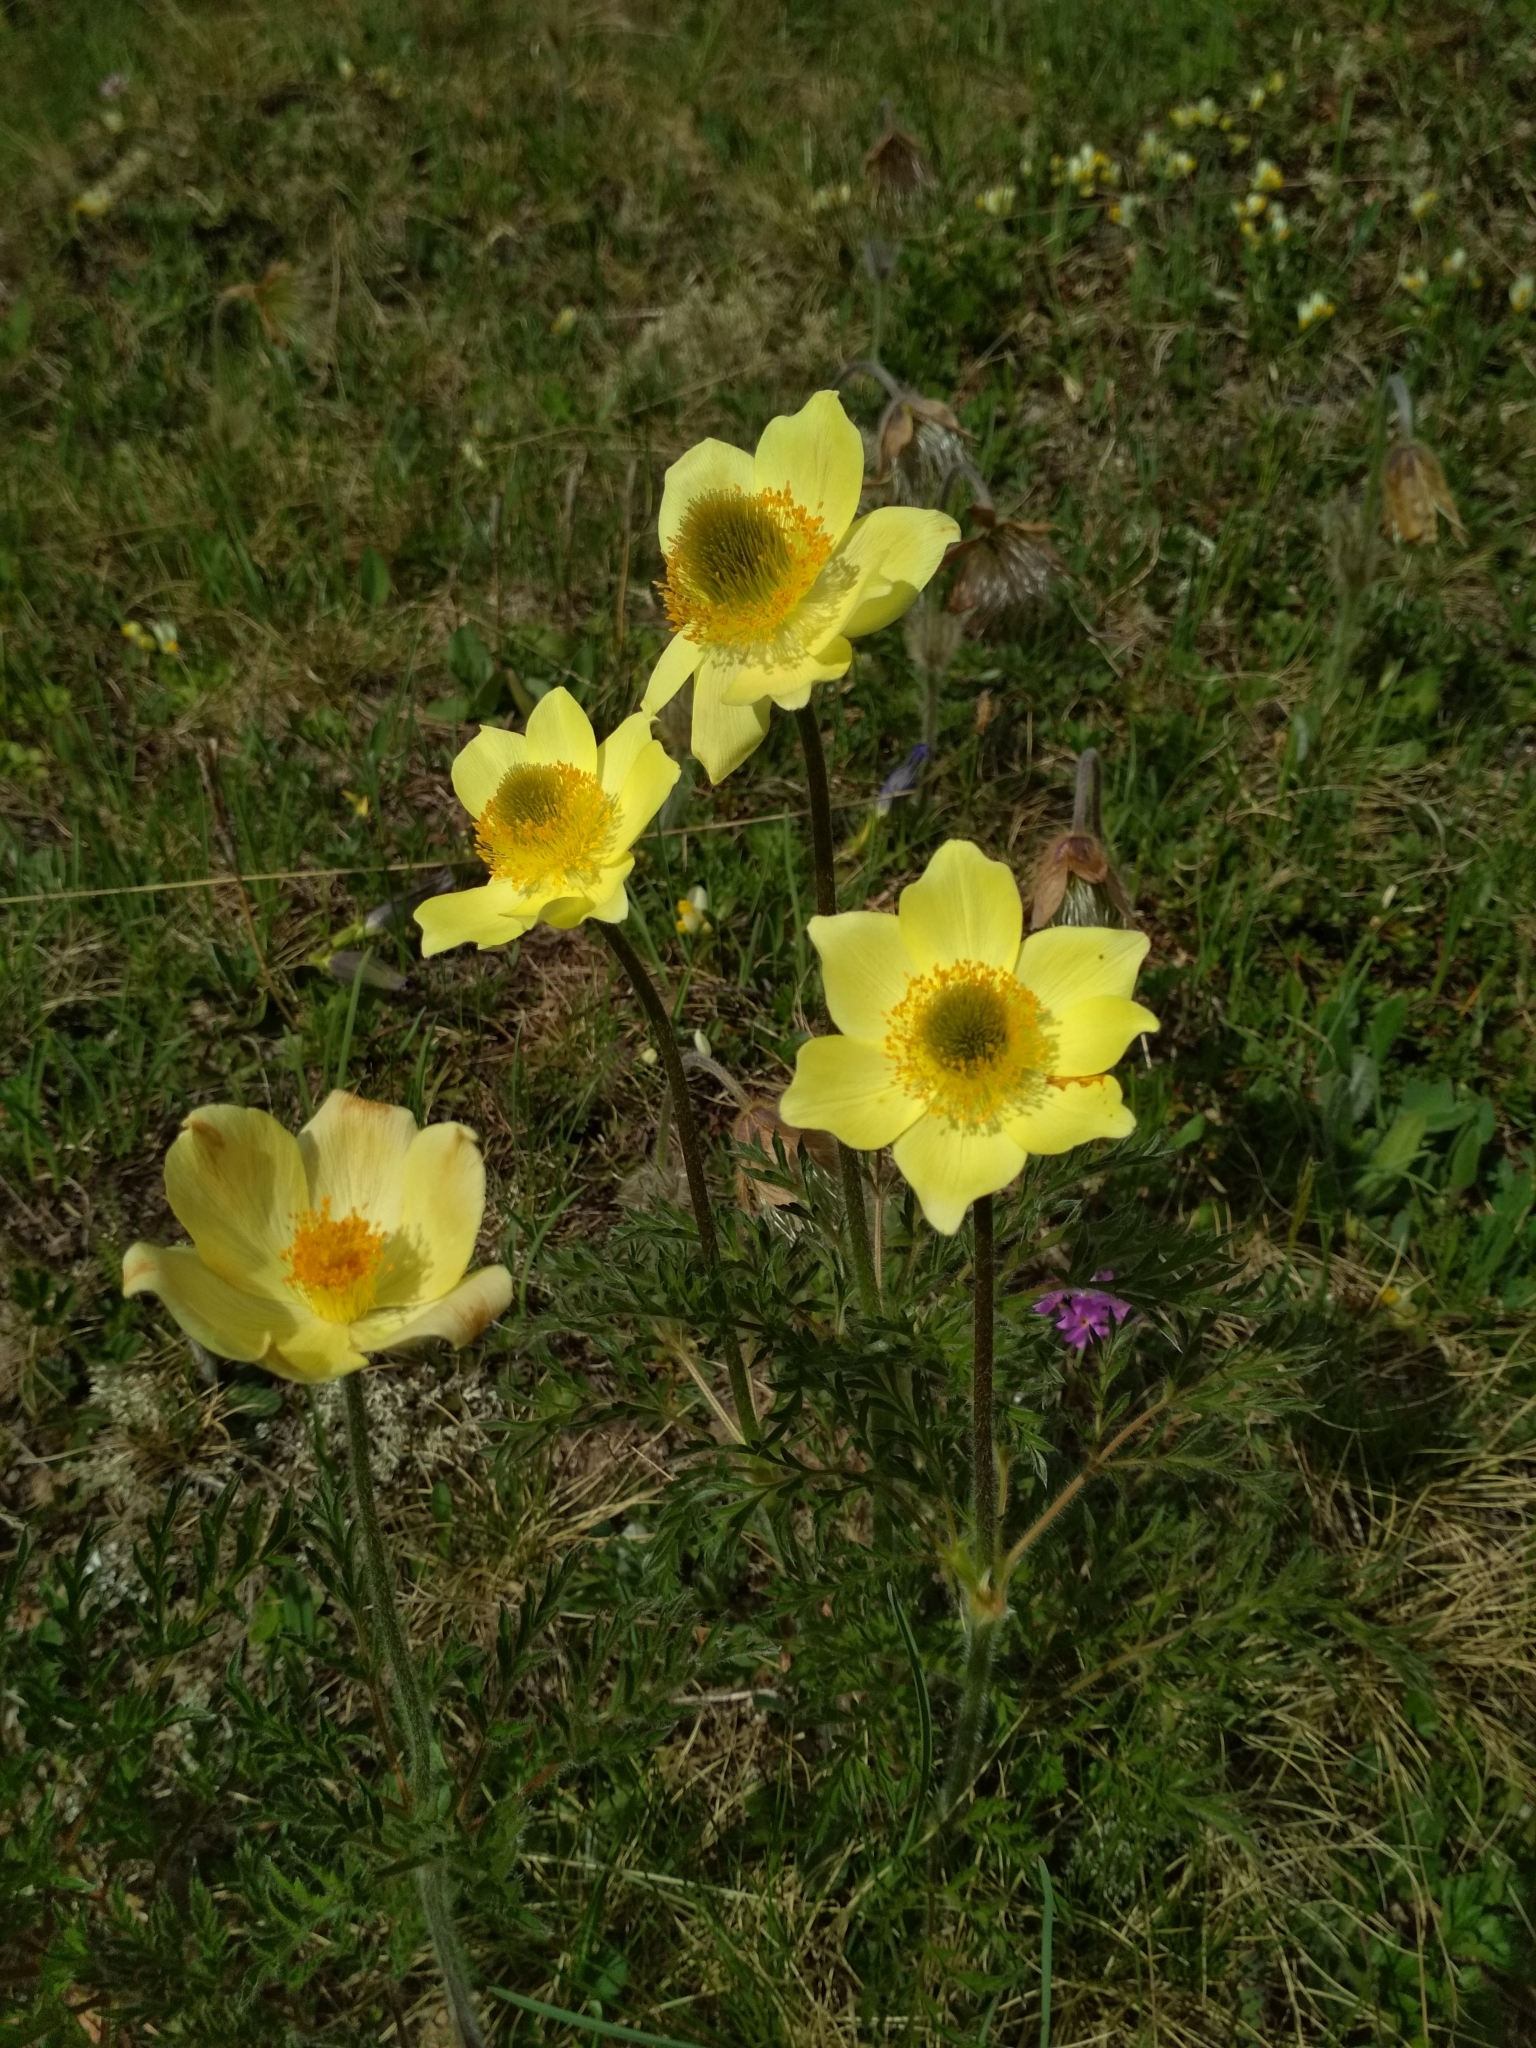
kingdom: Plantae
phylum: Tracheophyta
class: Magnoliopsida
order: Ranunculales
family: Ranunculaceae
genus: Pulsatilla
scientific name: Pulsatilla alpina
